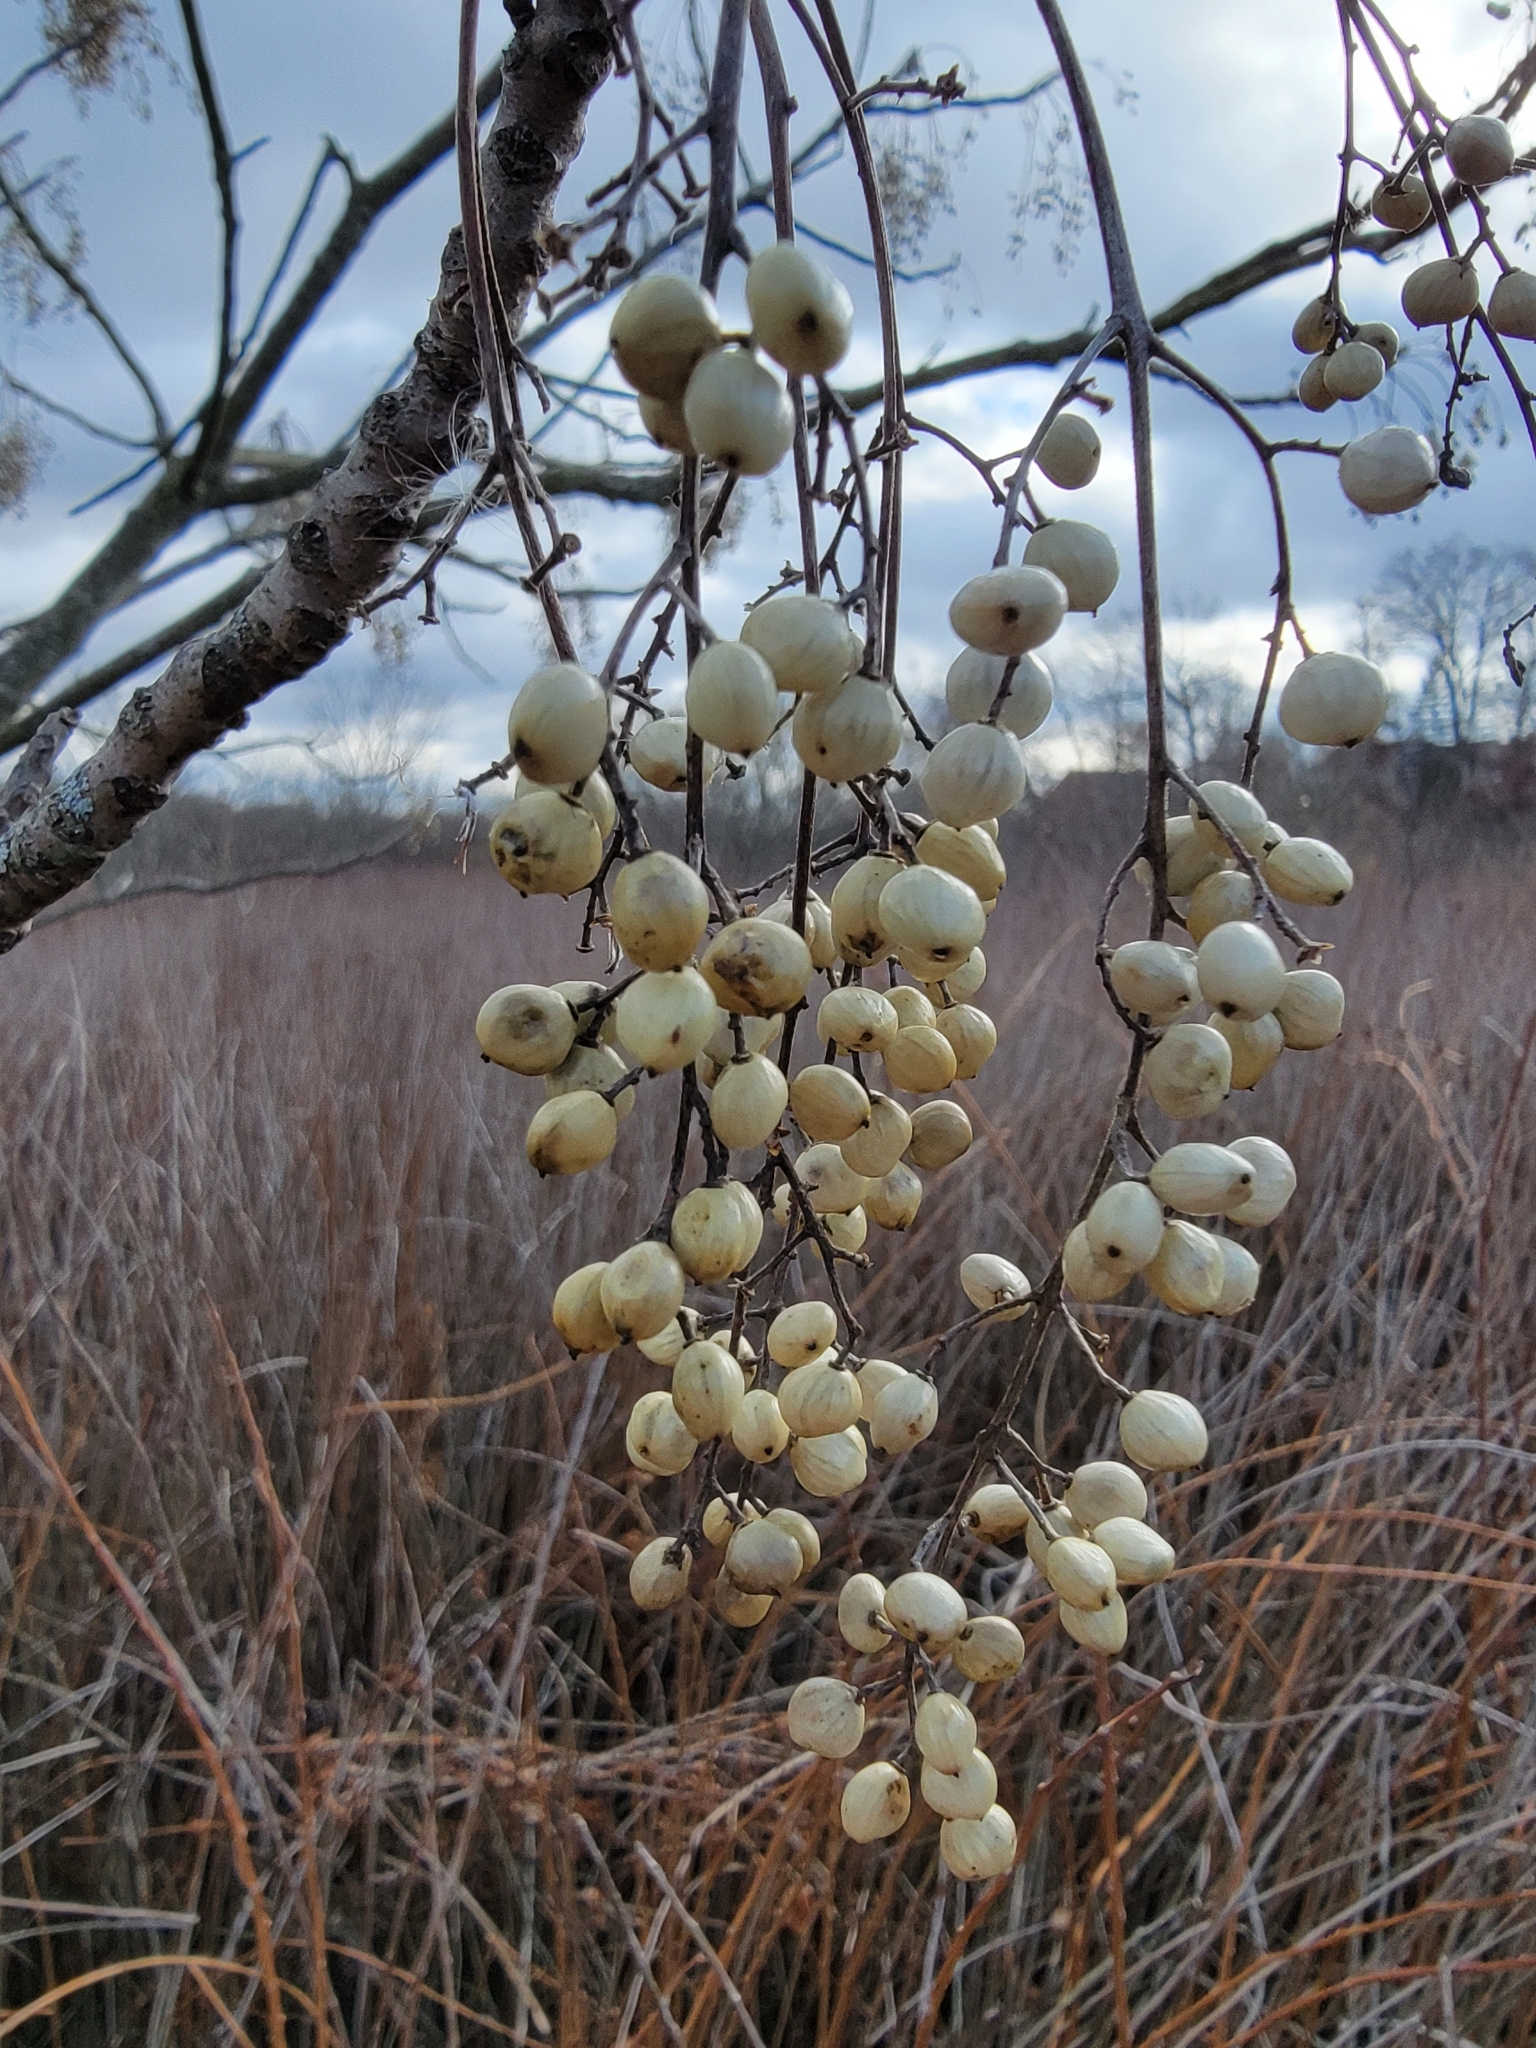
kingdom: Plantae
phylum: Tracheophyta
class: Magnoliopsida
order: Sapindales
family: Anacardiaceae
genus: Toxicodendron
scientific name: Toxicodendron vernix
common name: Poison sumac
